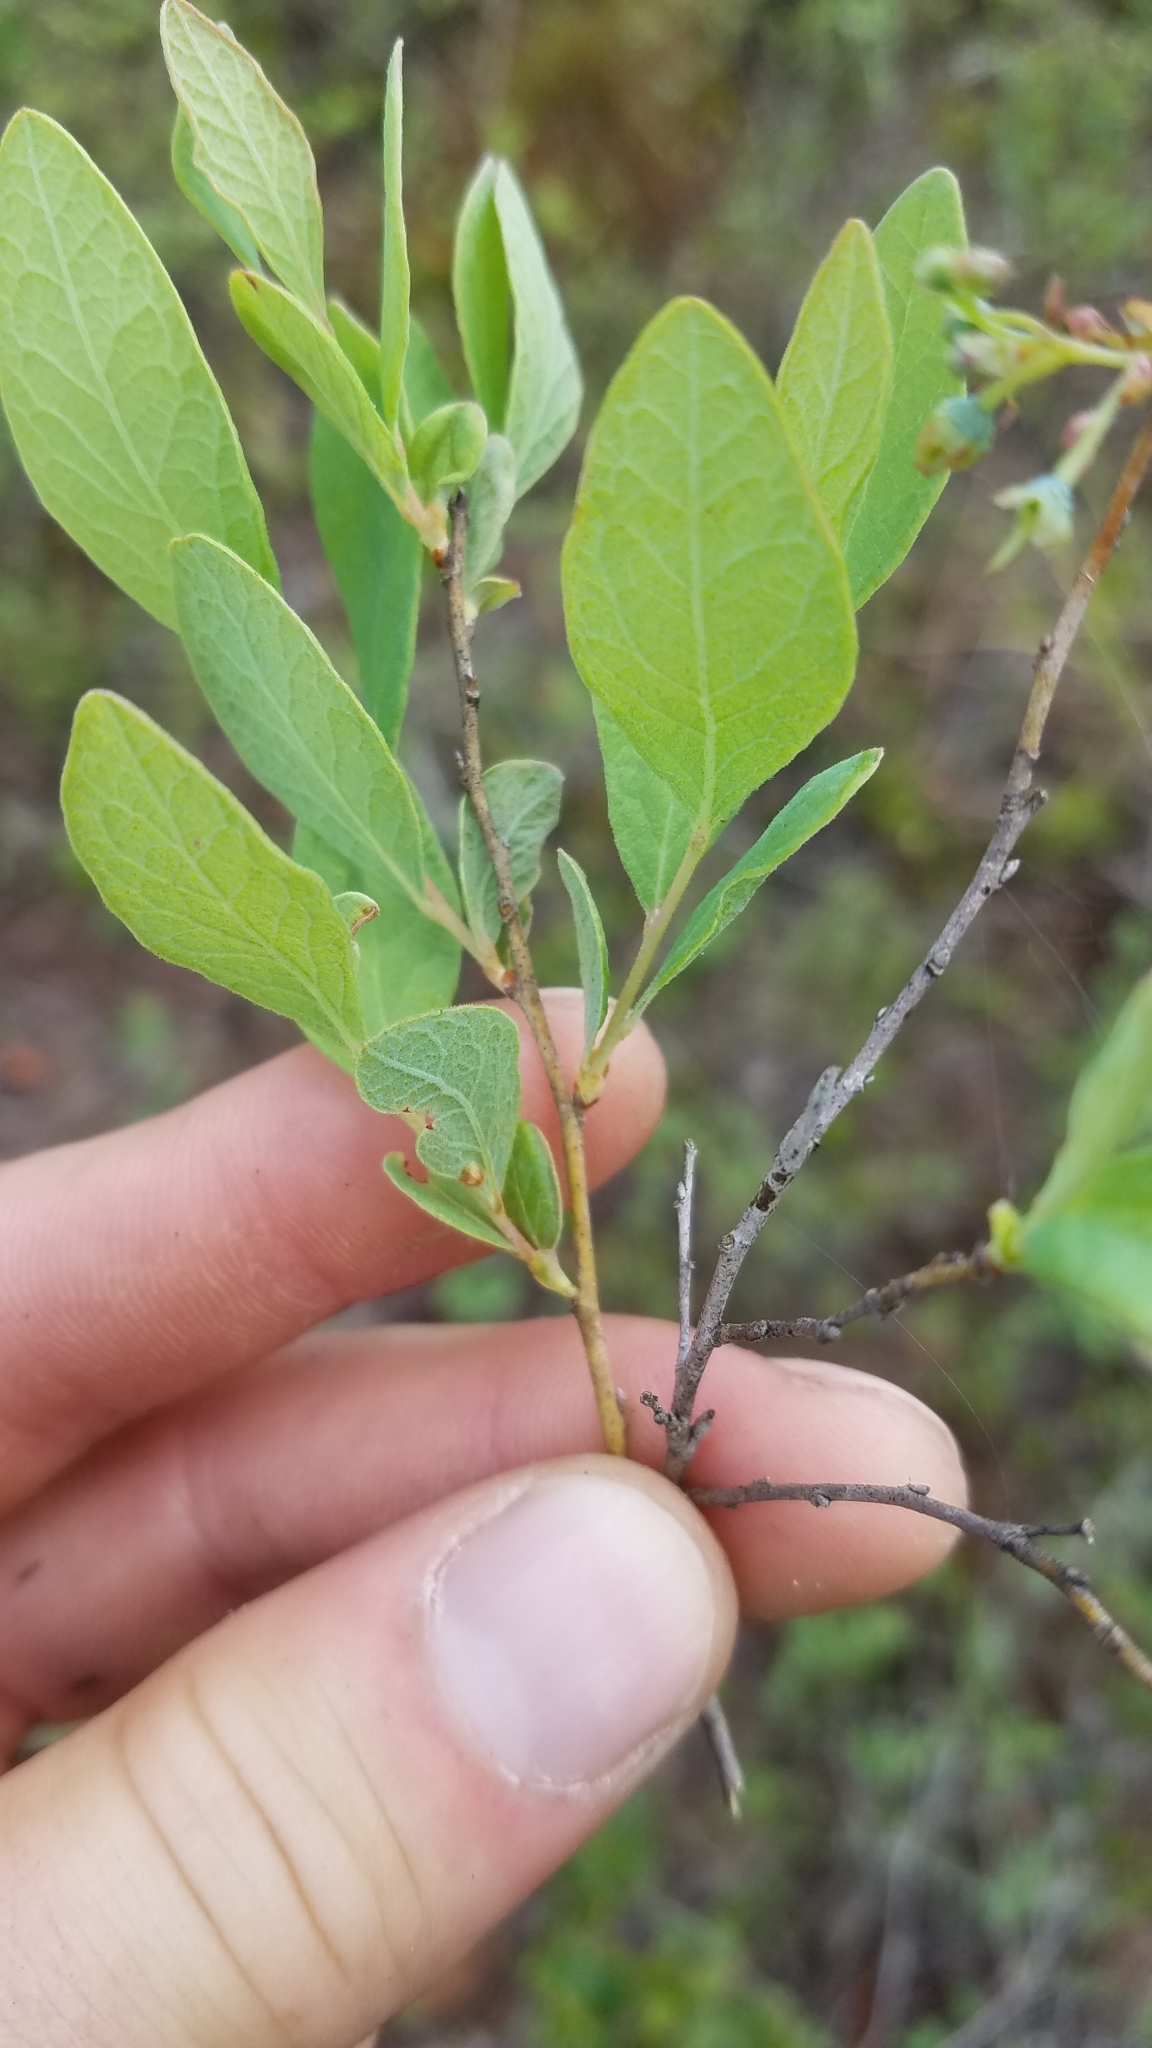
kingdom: Plantae
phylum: Tracheophyta
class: Magnoliopsida
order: Ericales
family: Ericaceae
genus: Gaylussacia
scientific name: Gaylussacia tomentosa
